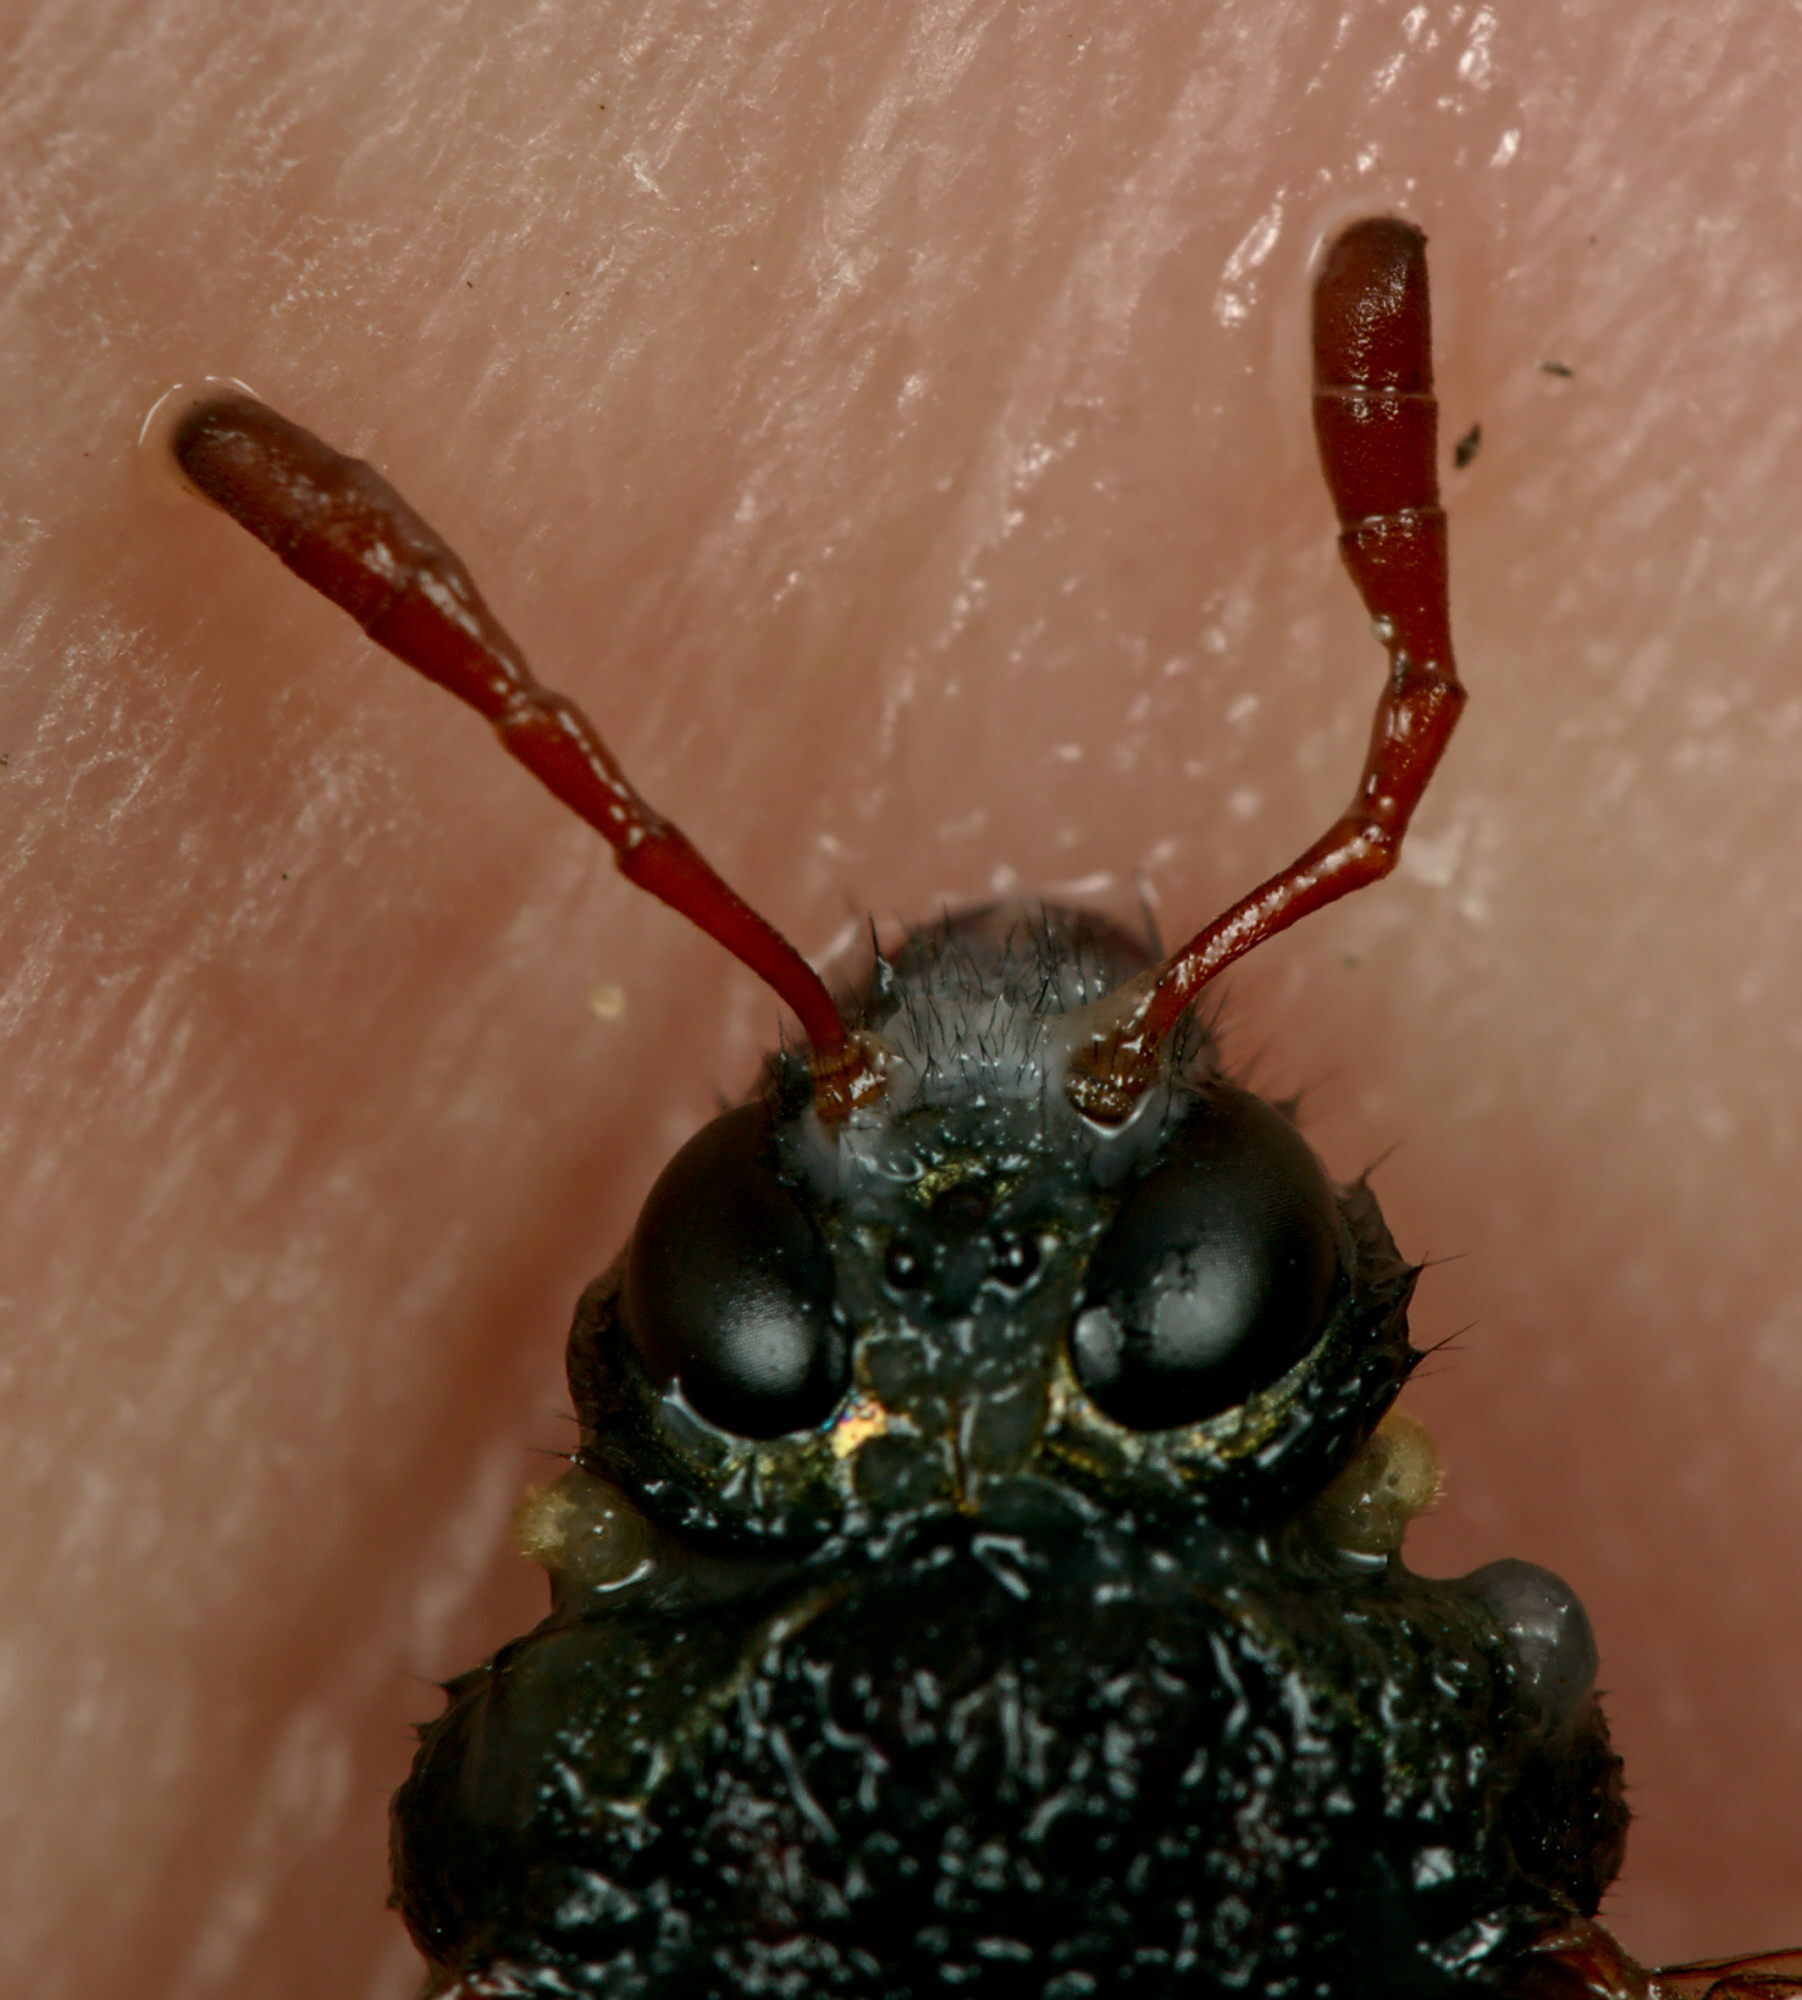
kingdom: Animalia
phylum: Arthropoda
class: Insecta
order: Hymenoptera
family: Cimbicidae
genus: Abia
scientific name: Abia nitens
